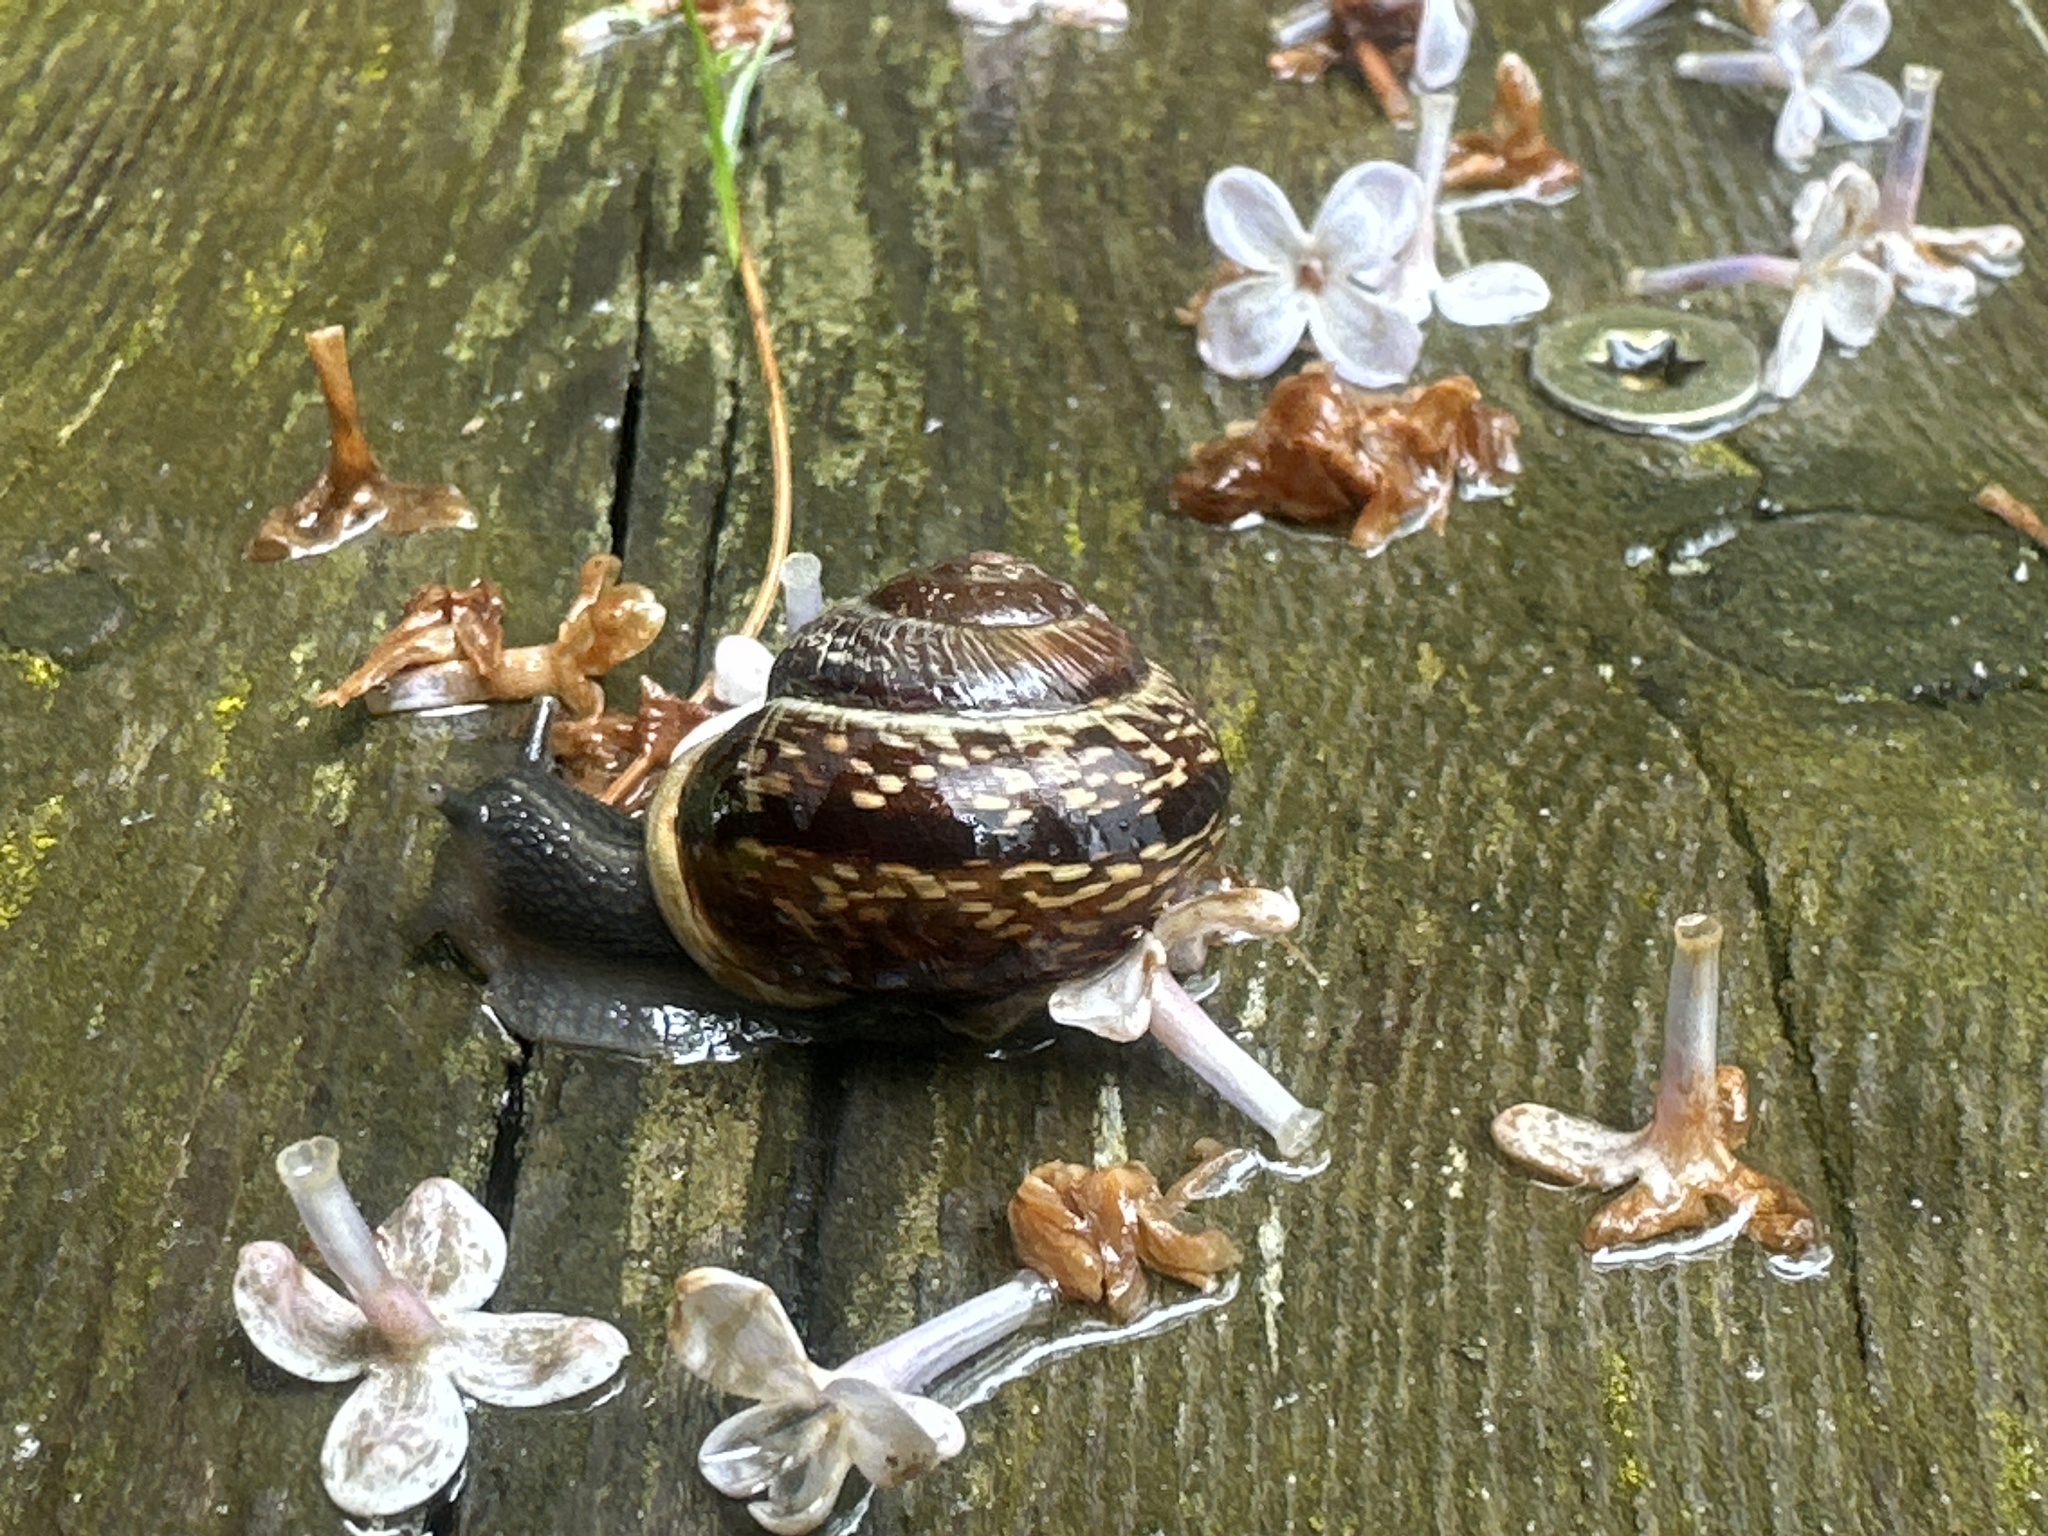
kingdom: Animalia
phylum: Mollusca
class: Gastropoda
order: Stylommatophora
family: Helicidae
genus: Arianta
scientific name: Arianta arbustorum
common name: Copse snail
